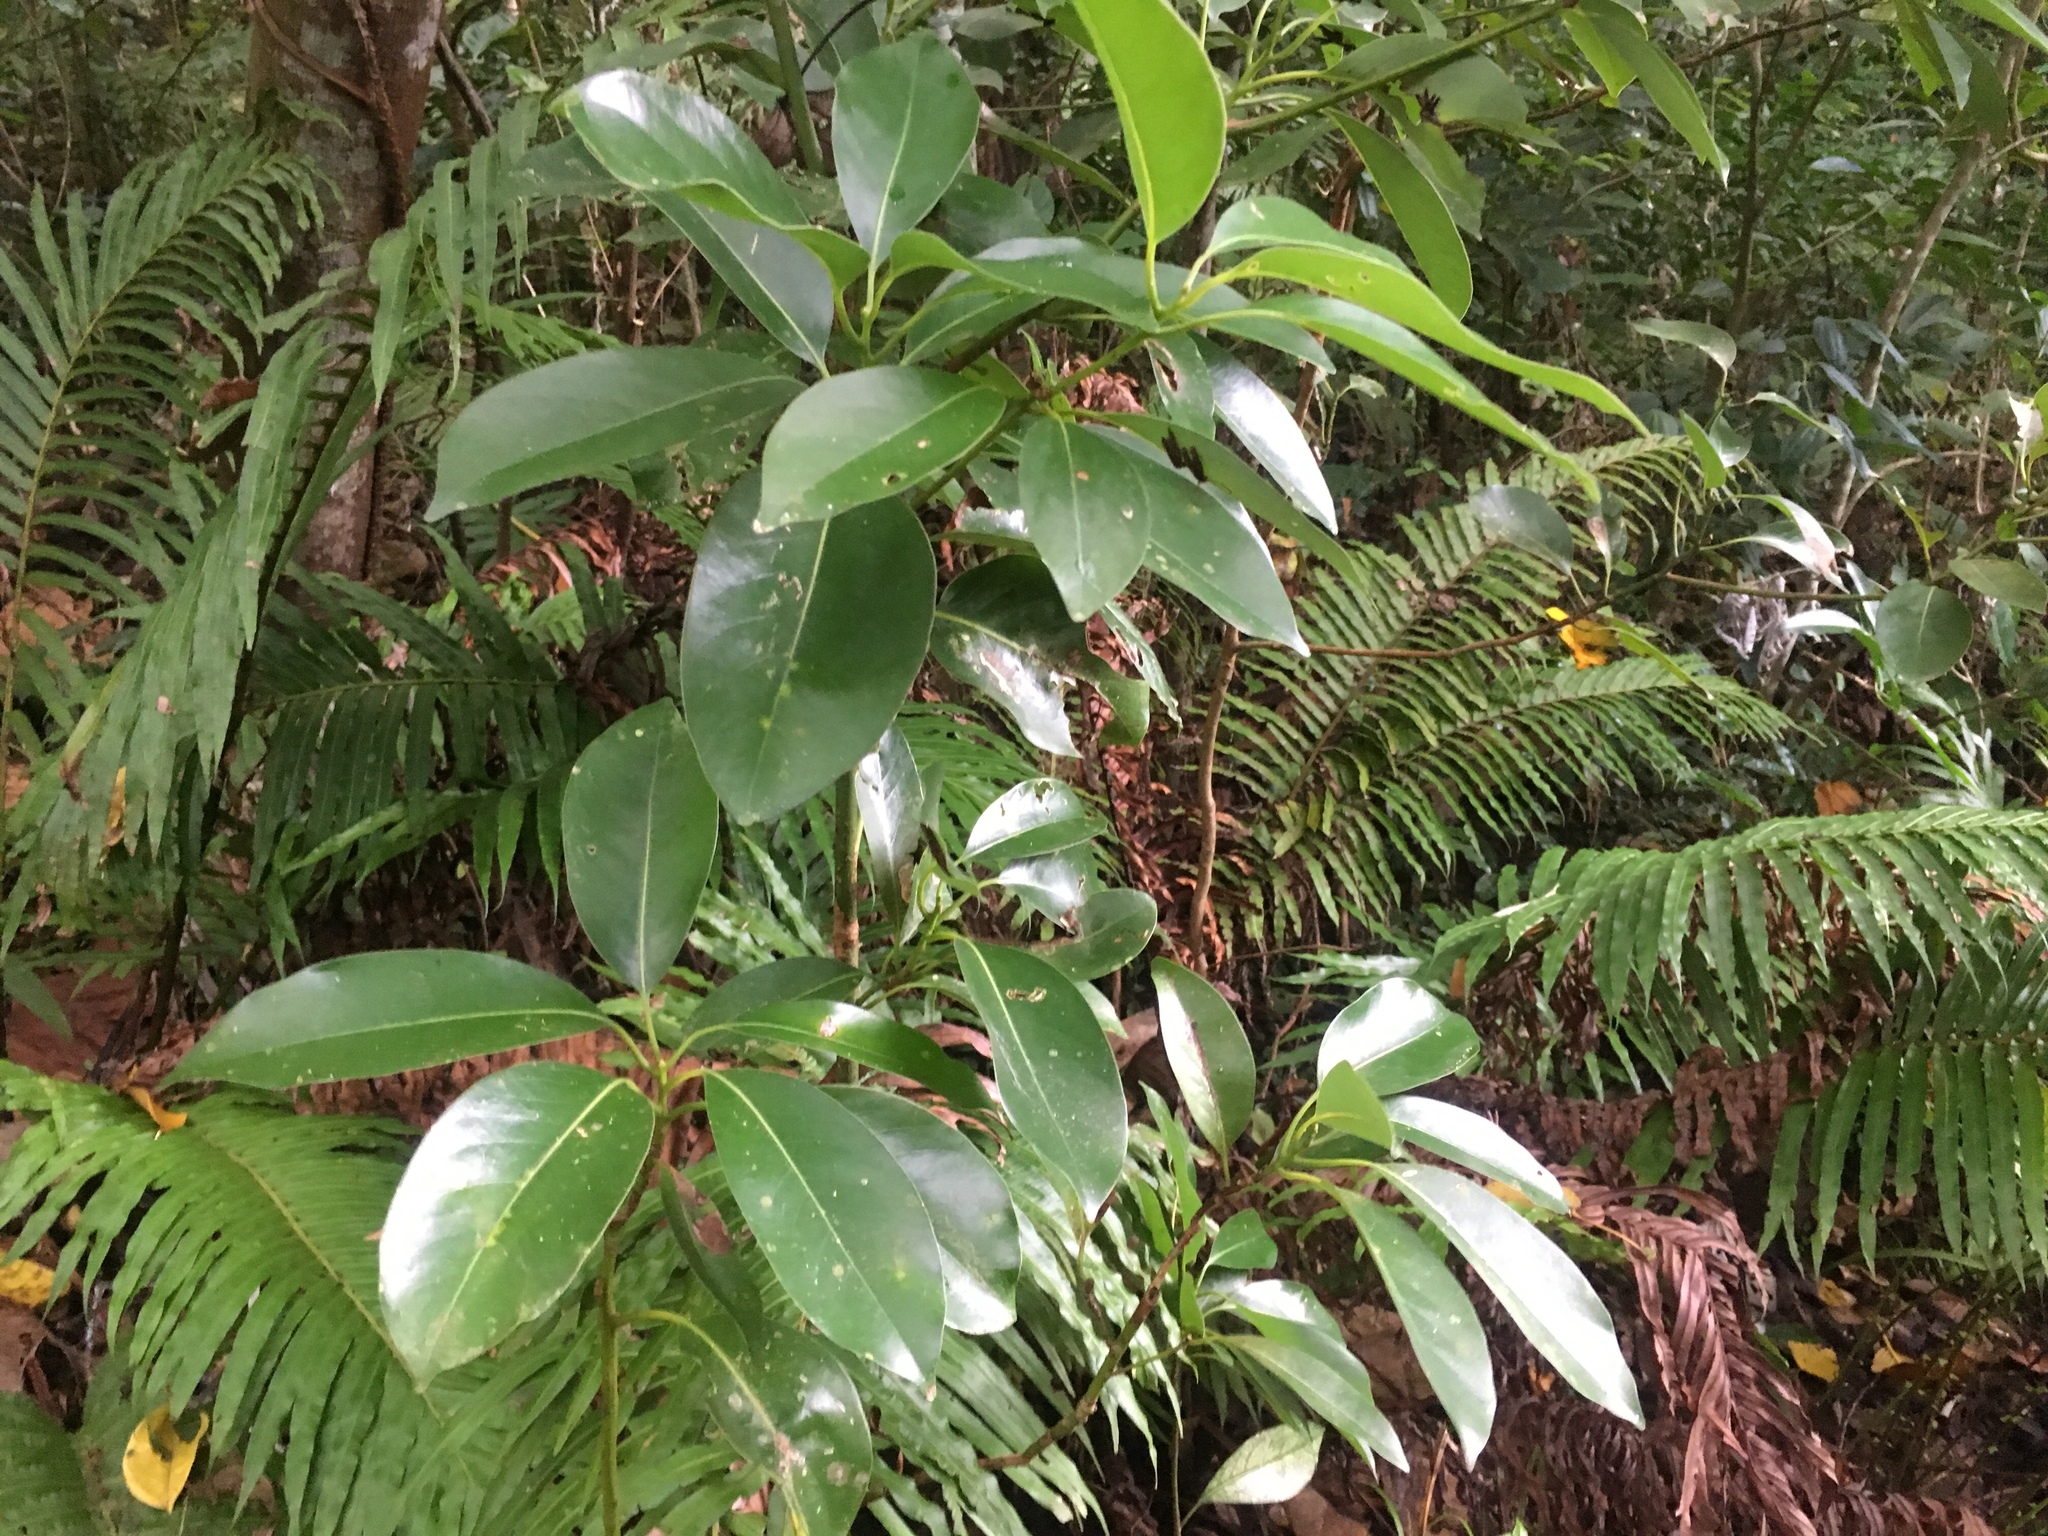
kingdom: Plantae
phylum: Tracheophyta
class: Magnoliopsida
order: Laurales
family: Lauraceae
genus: Machilus
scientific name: Machilus thunbergii
